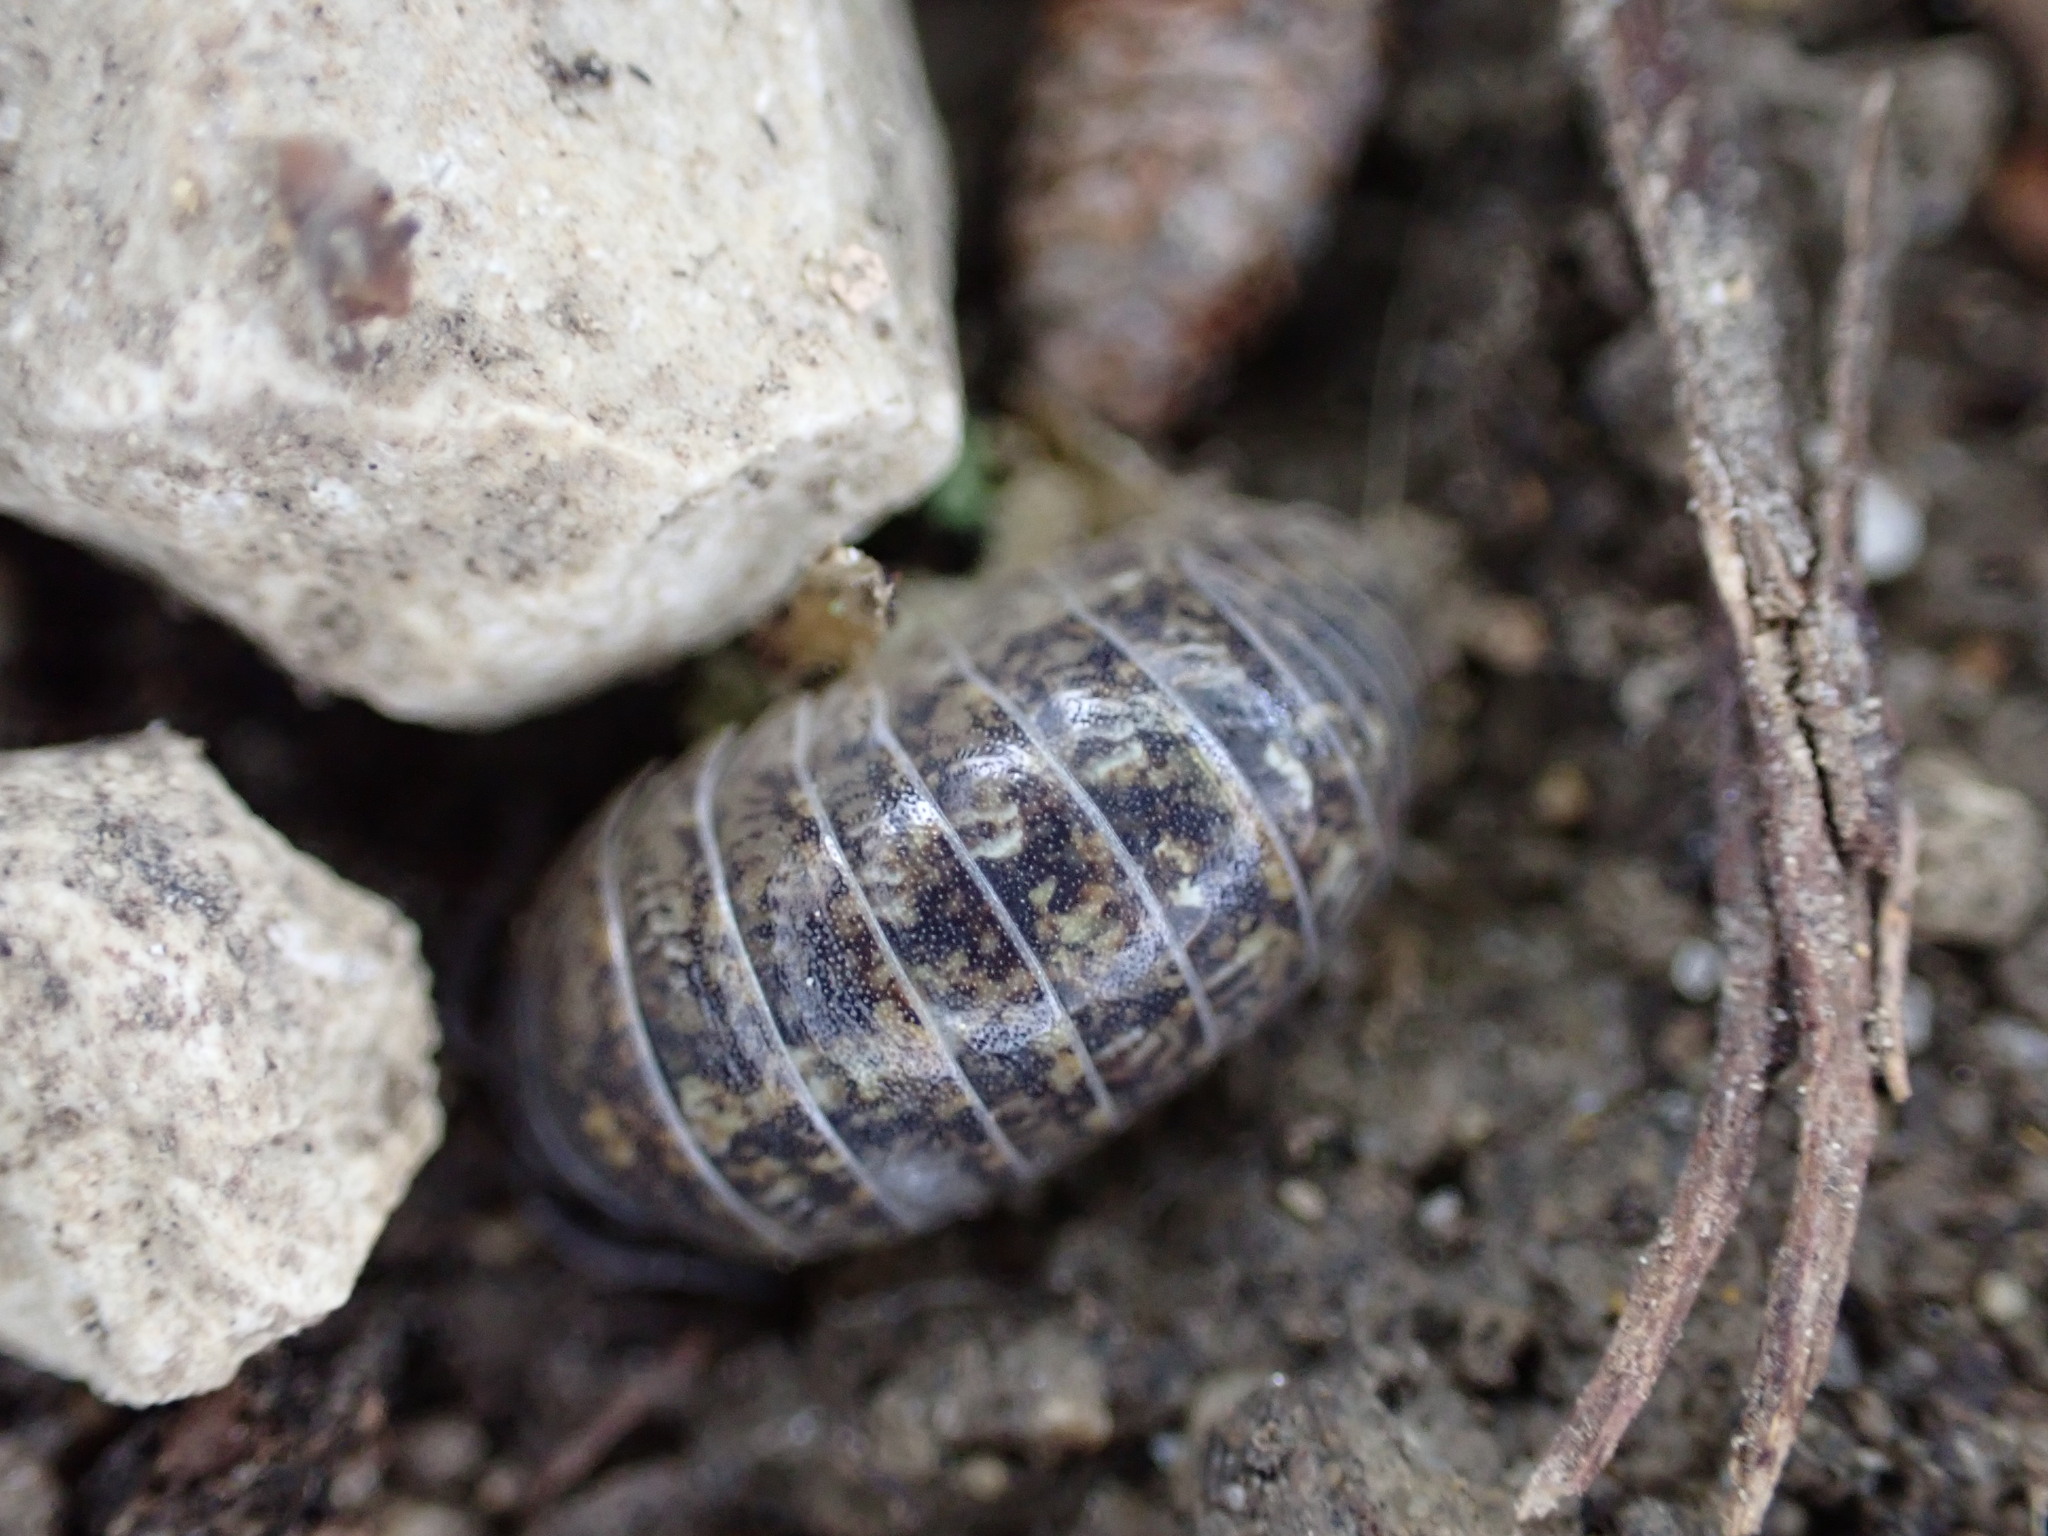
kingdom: Animalia
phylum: Arthropoda
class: Malacostraca
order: Isopoda
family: Armadillidiidae
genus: Armadillidium
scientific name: Armadillidium arcangelii
